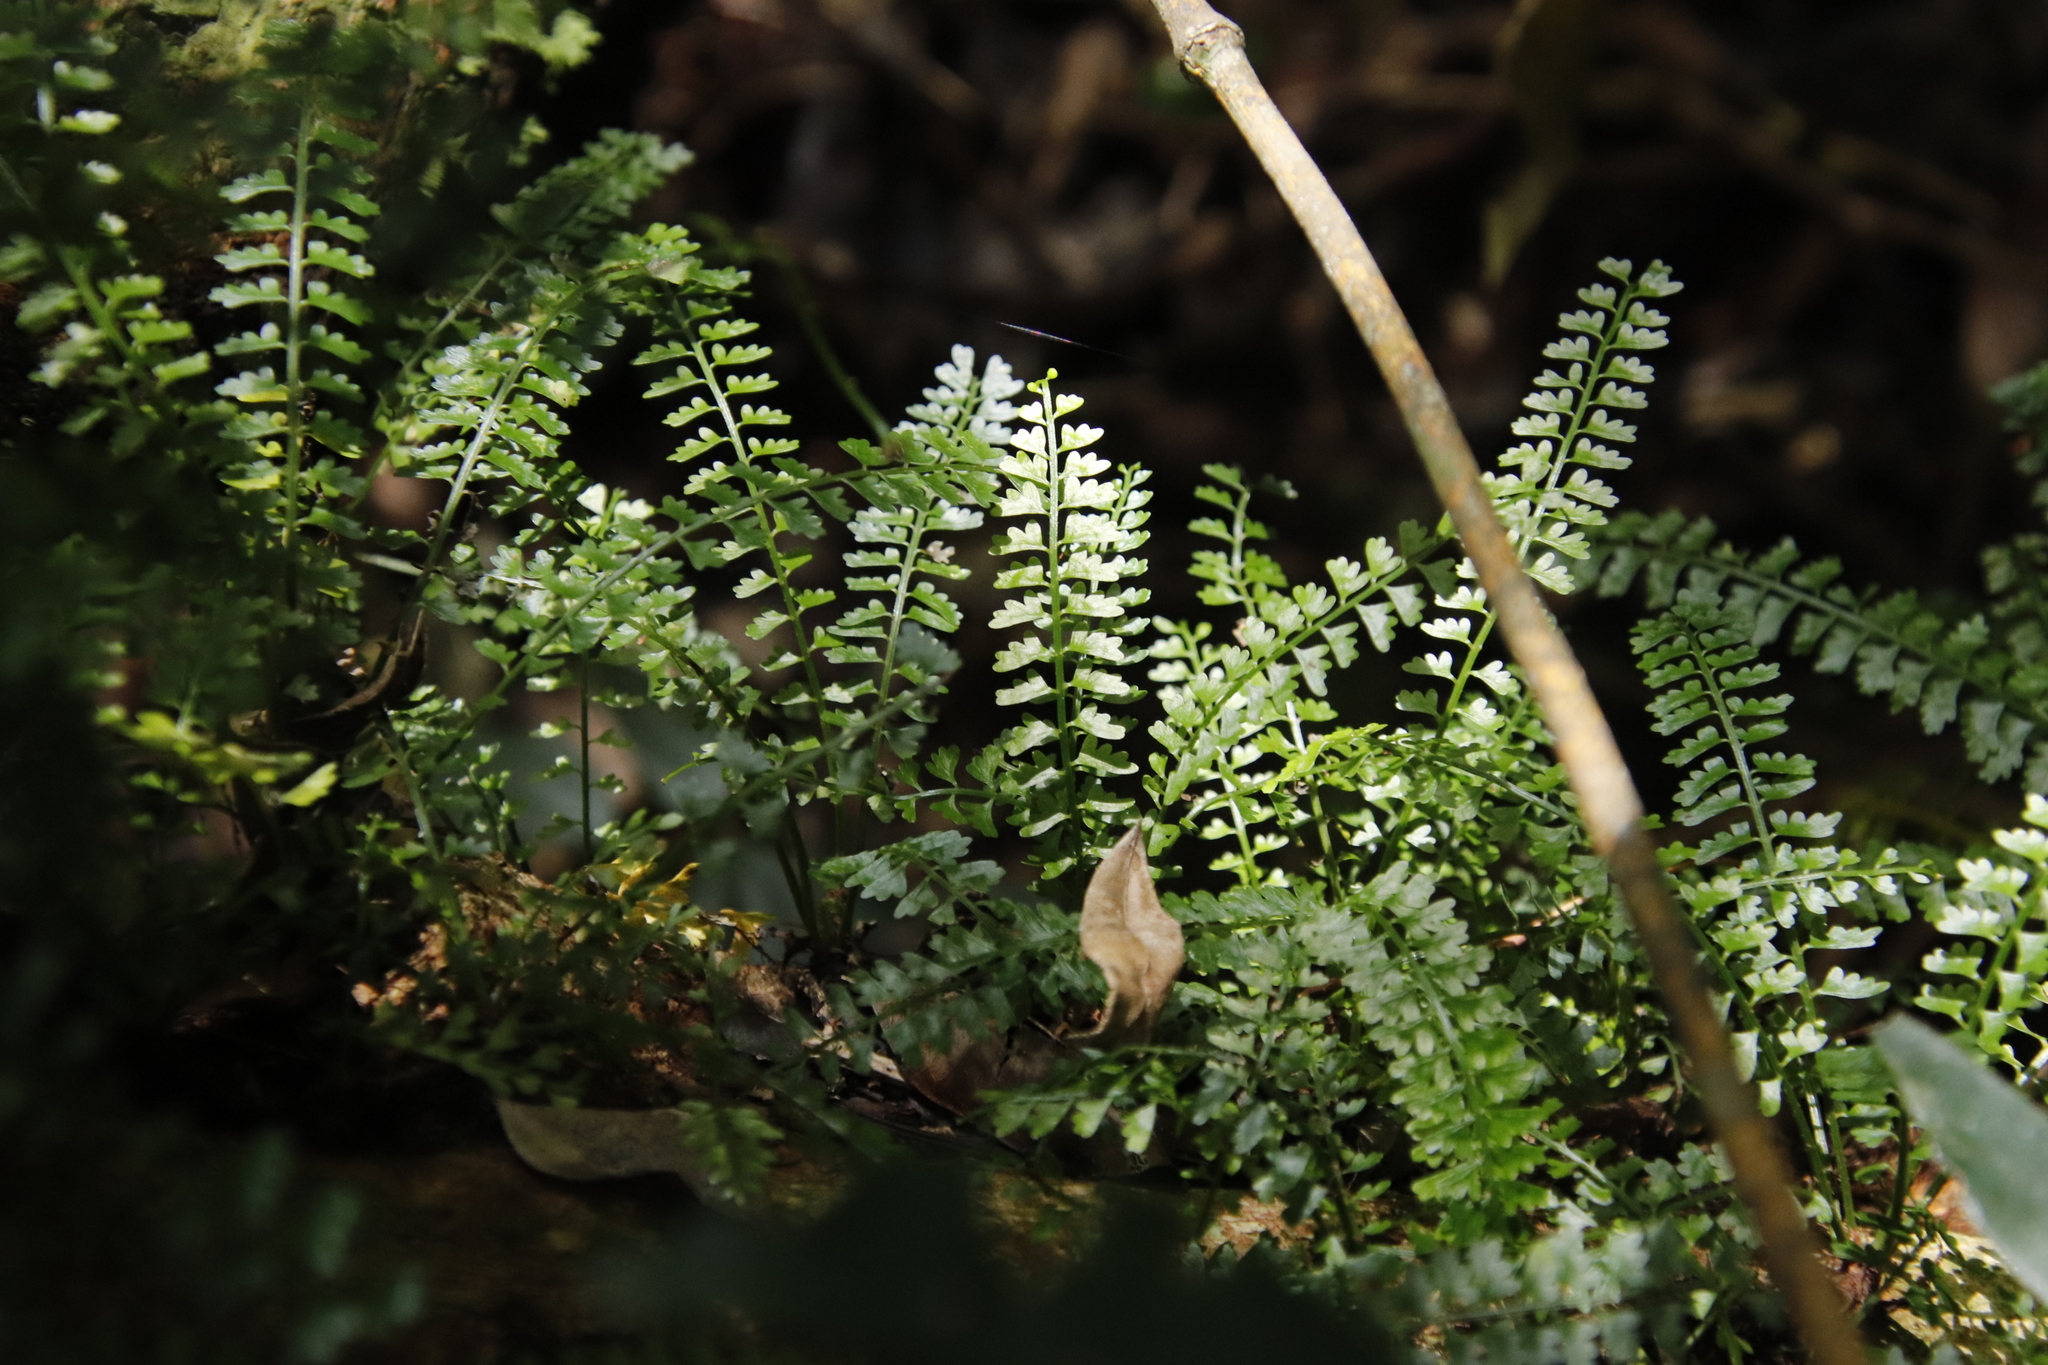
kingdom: Plantae
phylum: Tracheophyta
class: Polypodiopsida
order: Polypodiales
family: Aspleniaceae
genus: Asplenium
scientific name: Asplenium sandersonii
